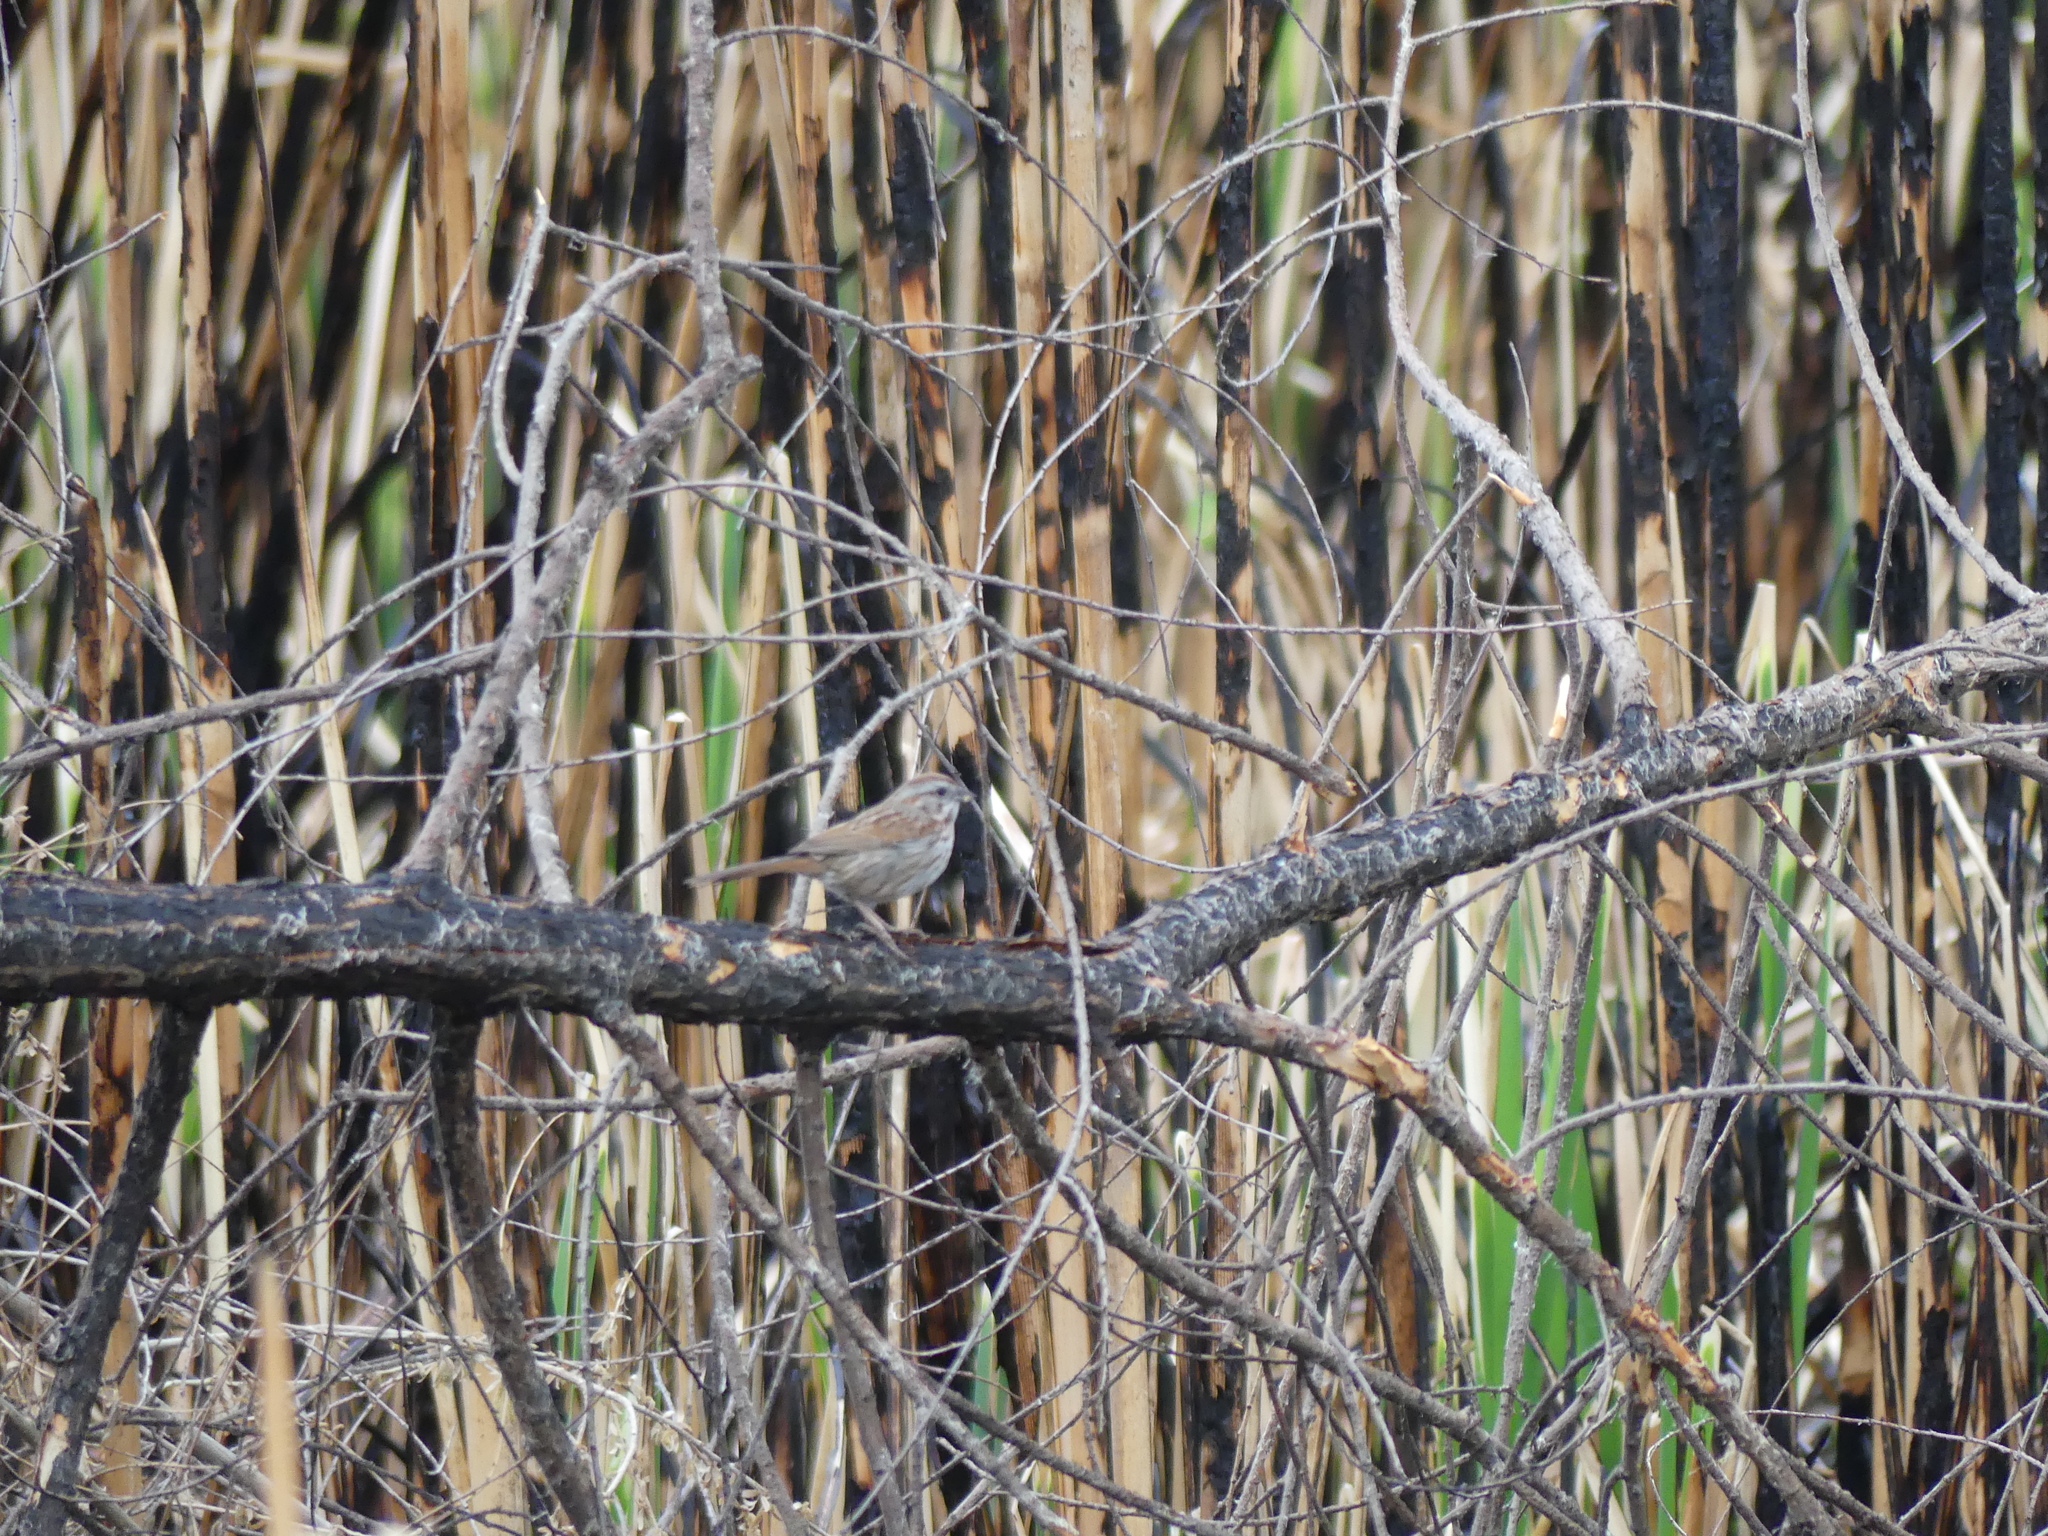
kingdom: Animalia
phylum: Chordata
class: Aves
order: Passeriformes
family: Passerellidae
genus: Melospiza
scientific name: Melospiza melodia
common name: Song sparrow
